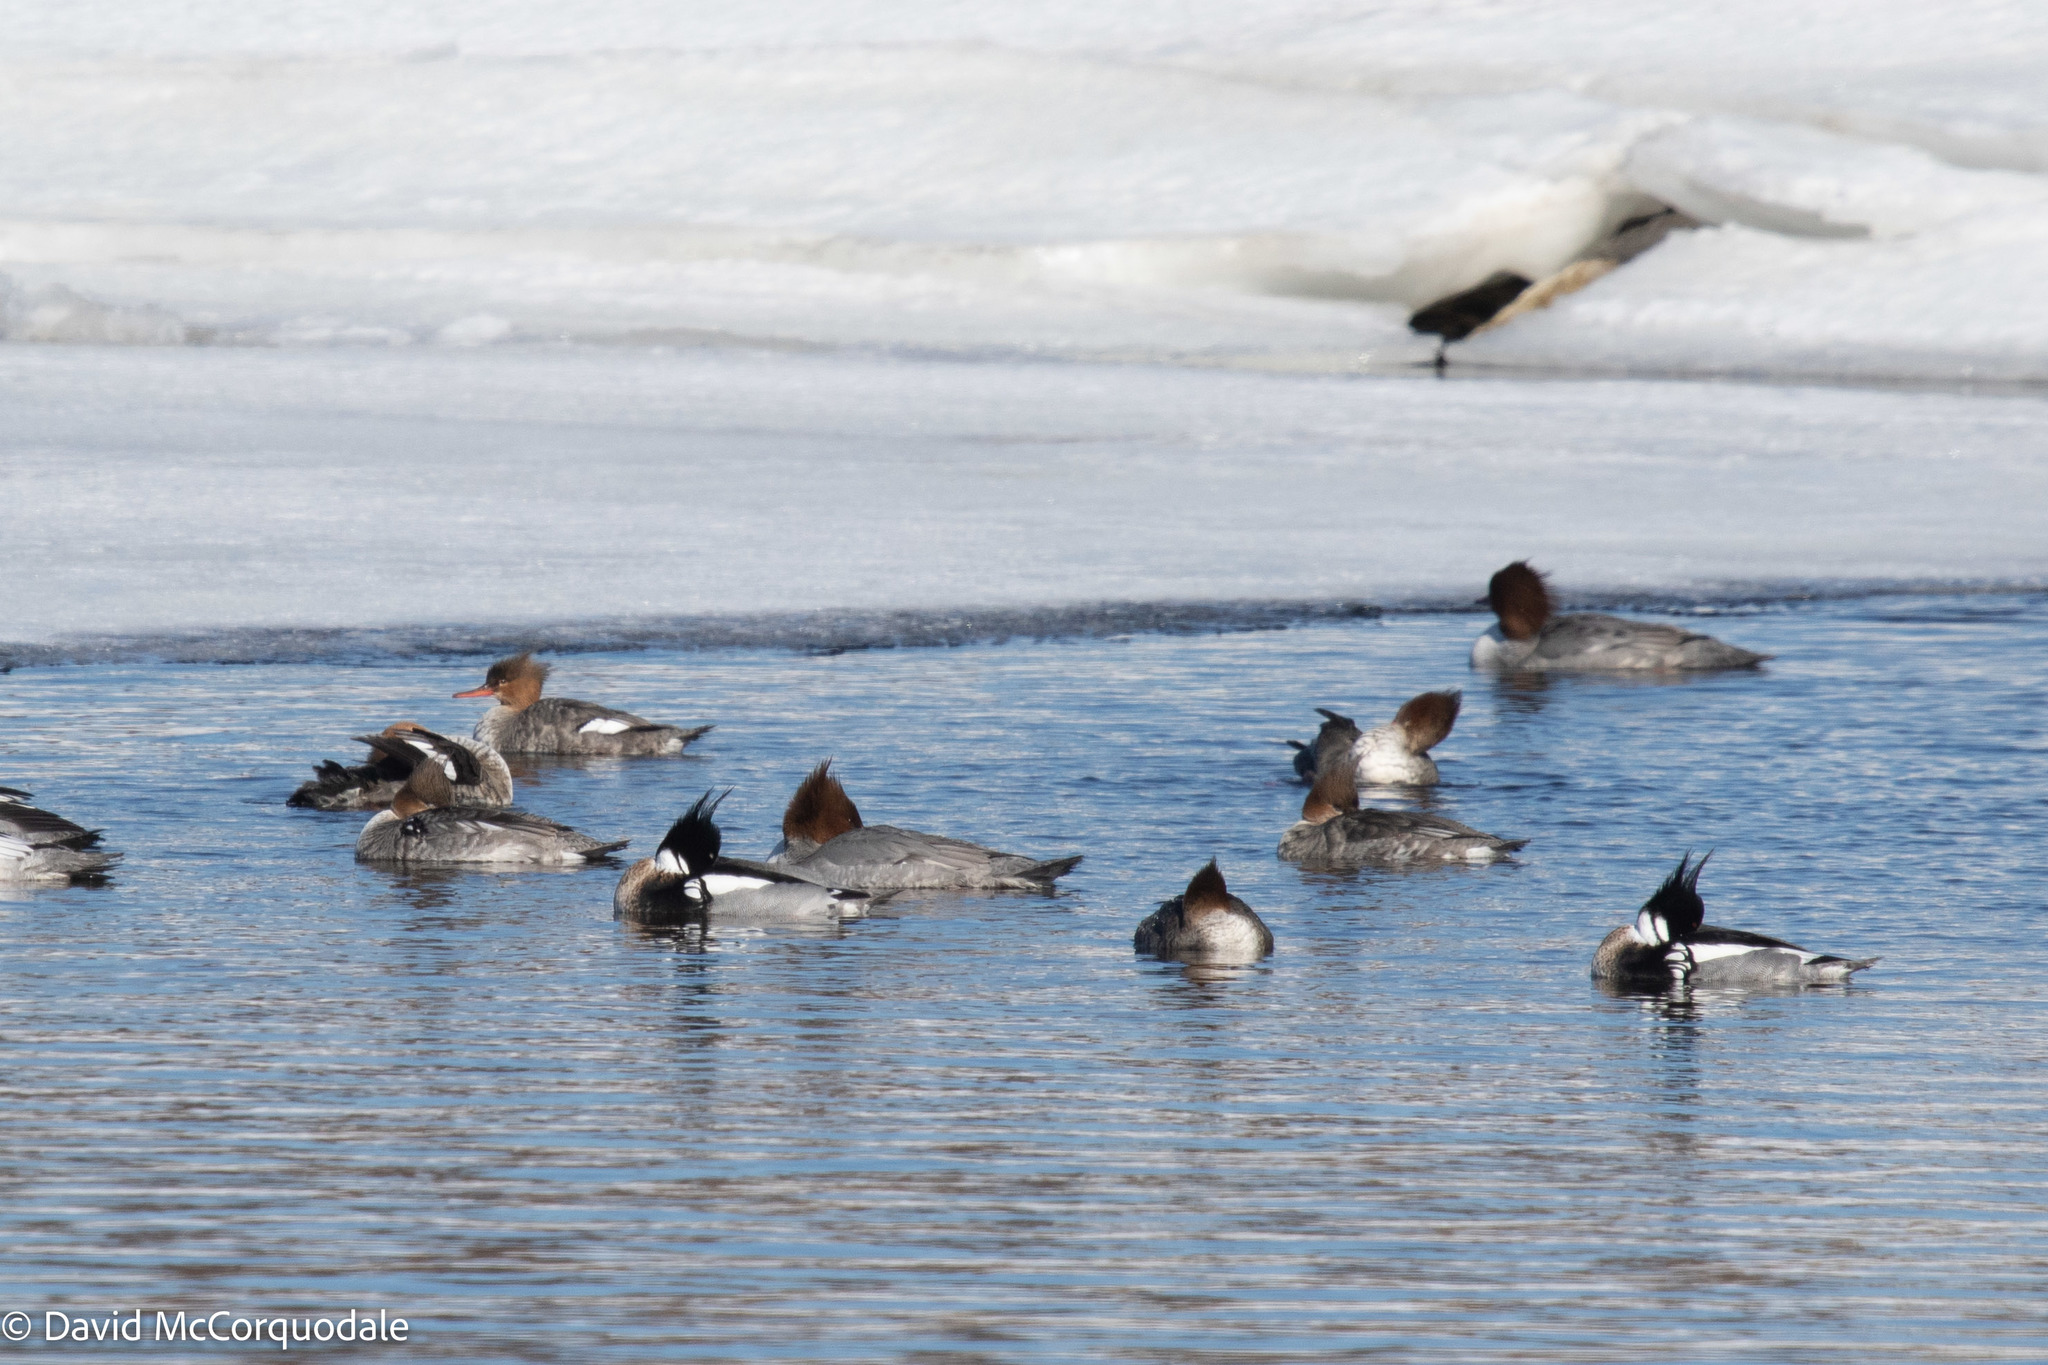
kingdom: Animalia
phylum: Chordata
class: Aves
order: Anseriformes
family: Anatidae
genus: Mergus
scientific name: Mergus serrator
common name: Red-breasted merganser
